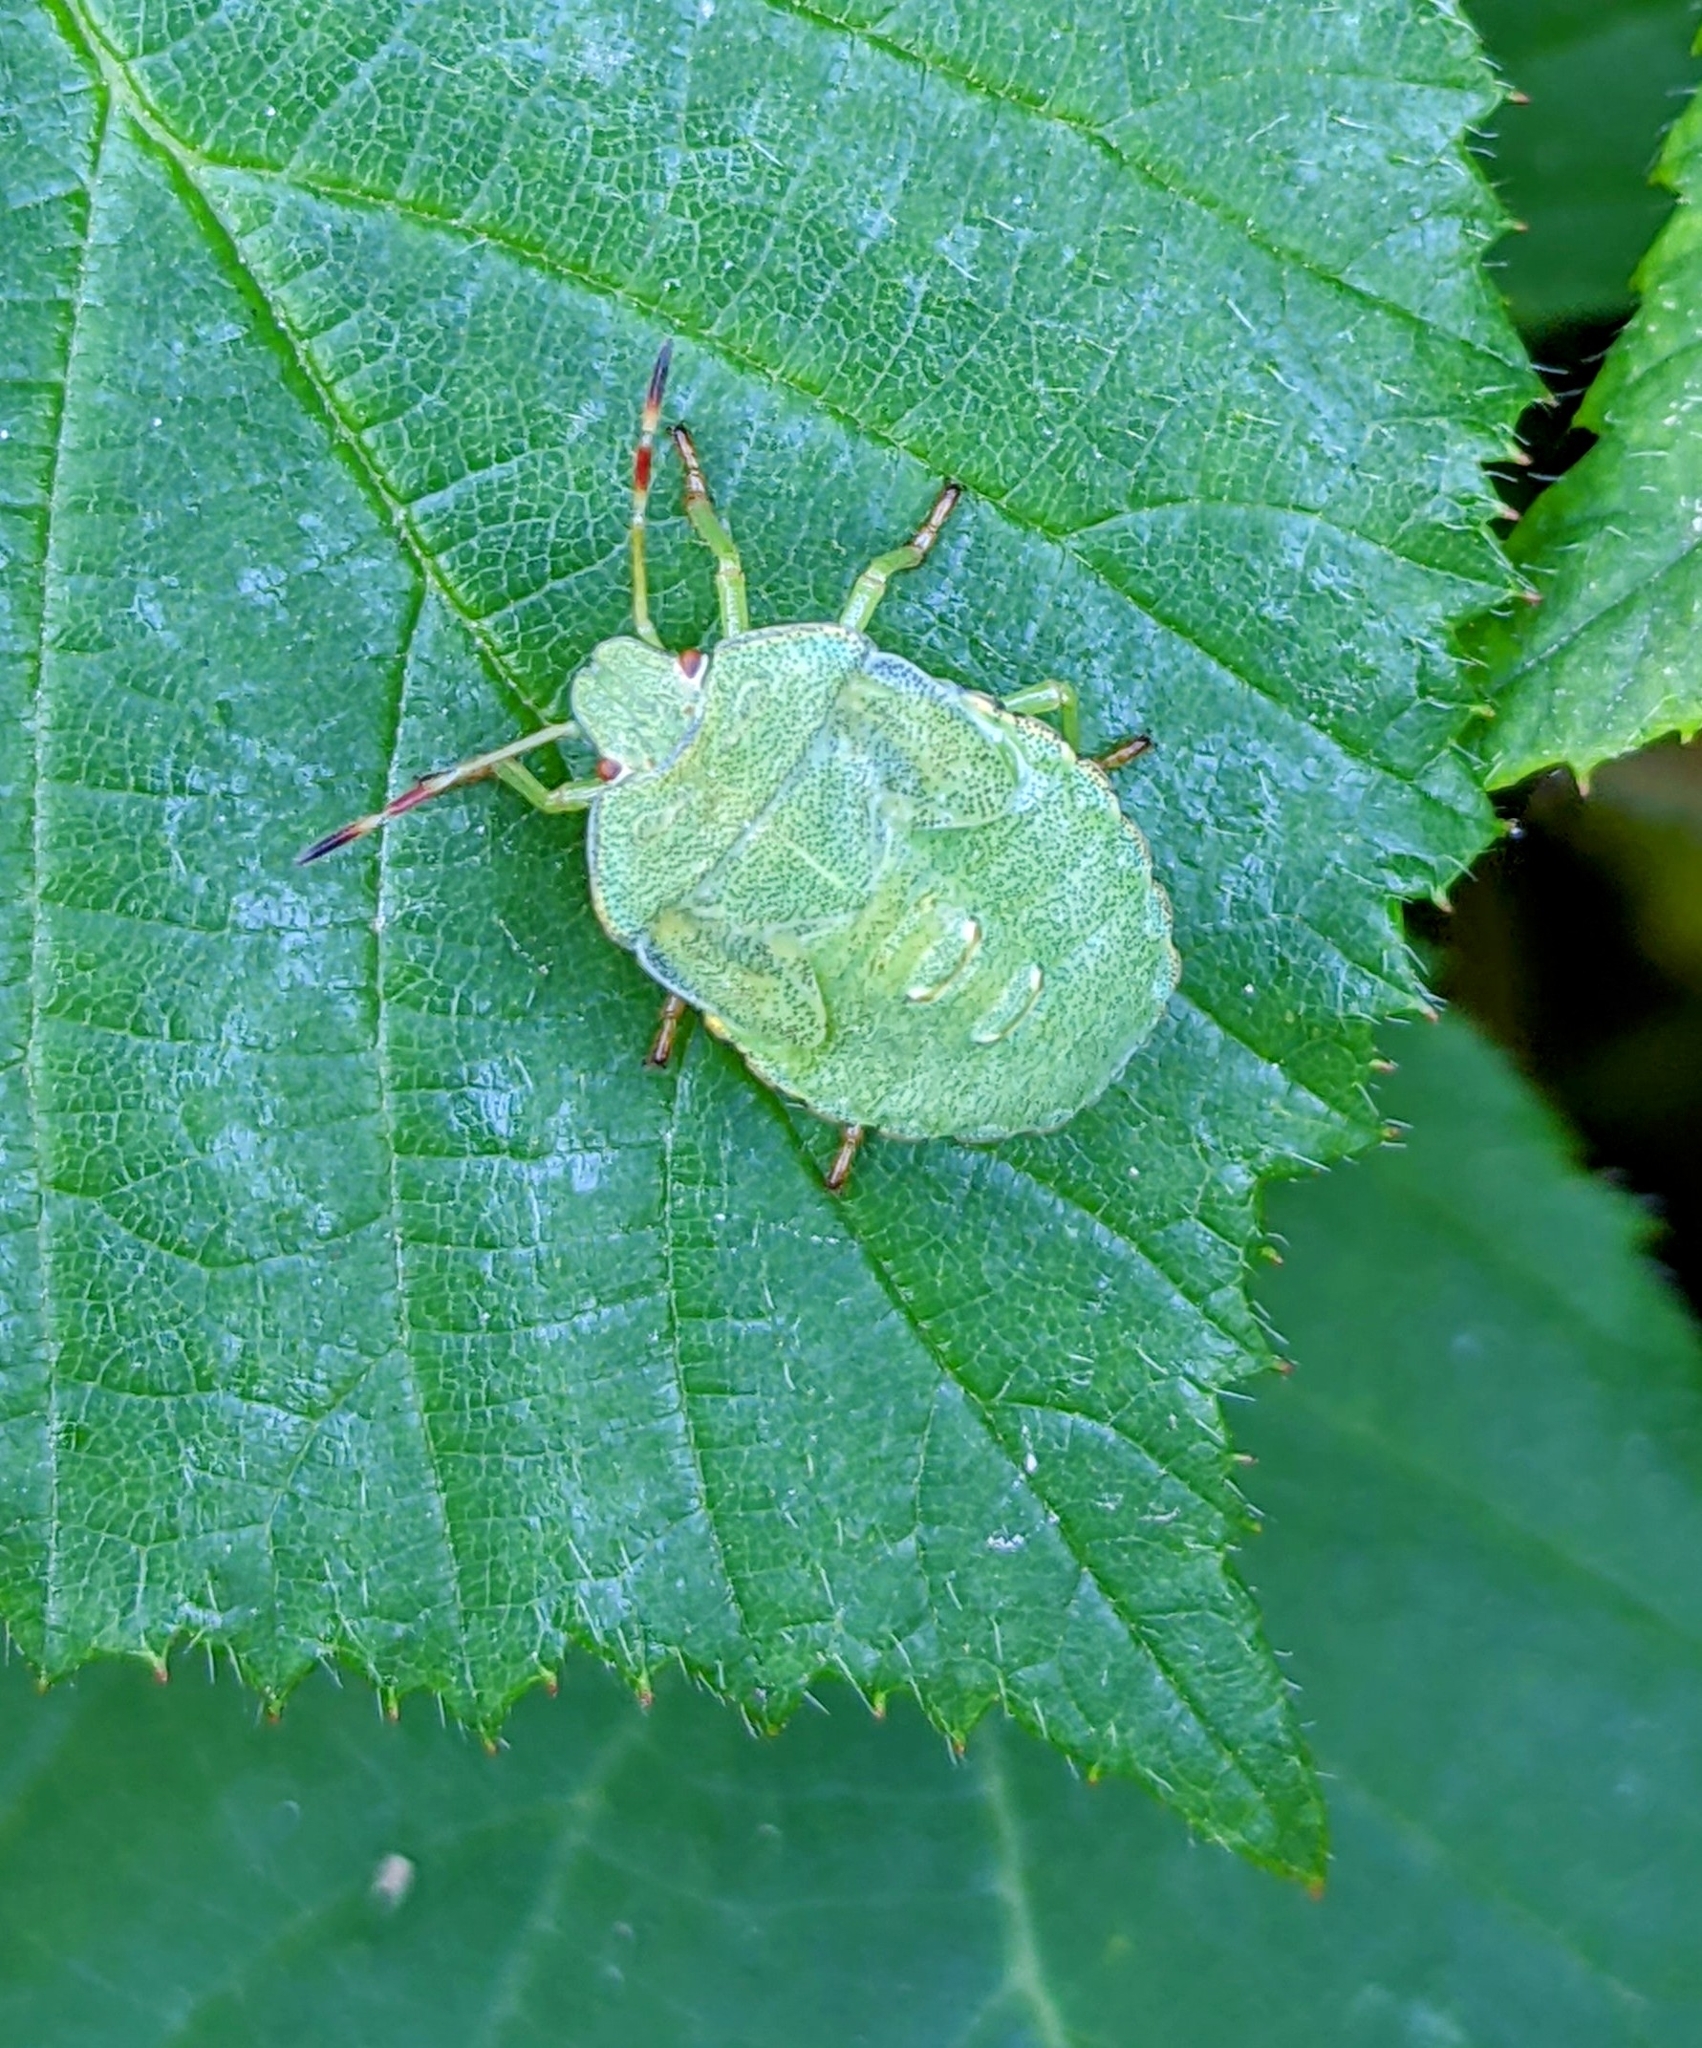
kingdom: Animalia
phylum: Arthropoda
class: Insecta
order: Hemiptera
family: Pentatomidae
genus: Palomena
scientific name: Palomena prasina
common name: Green shieldbug
